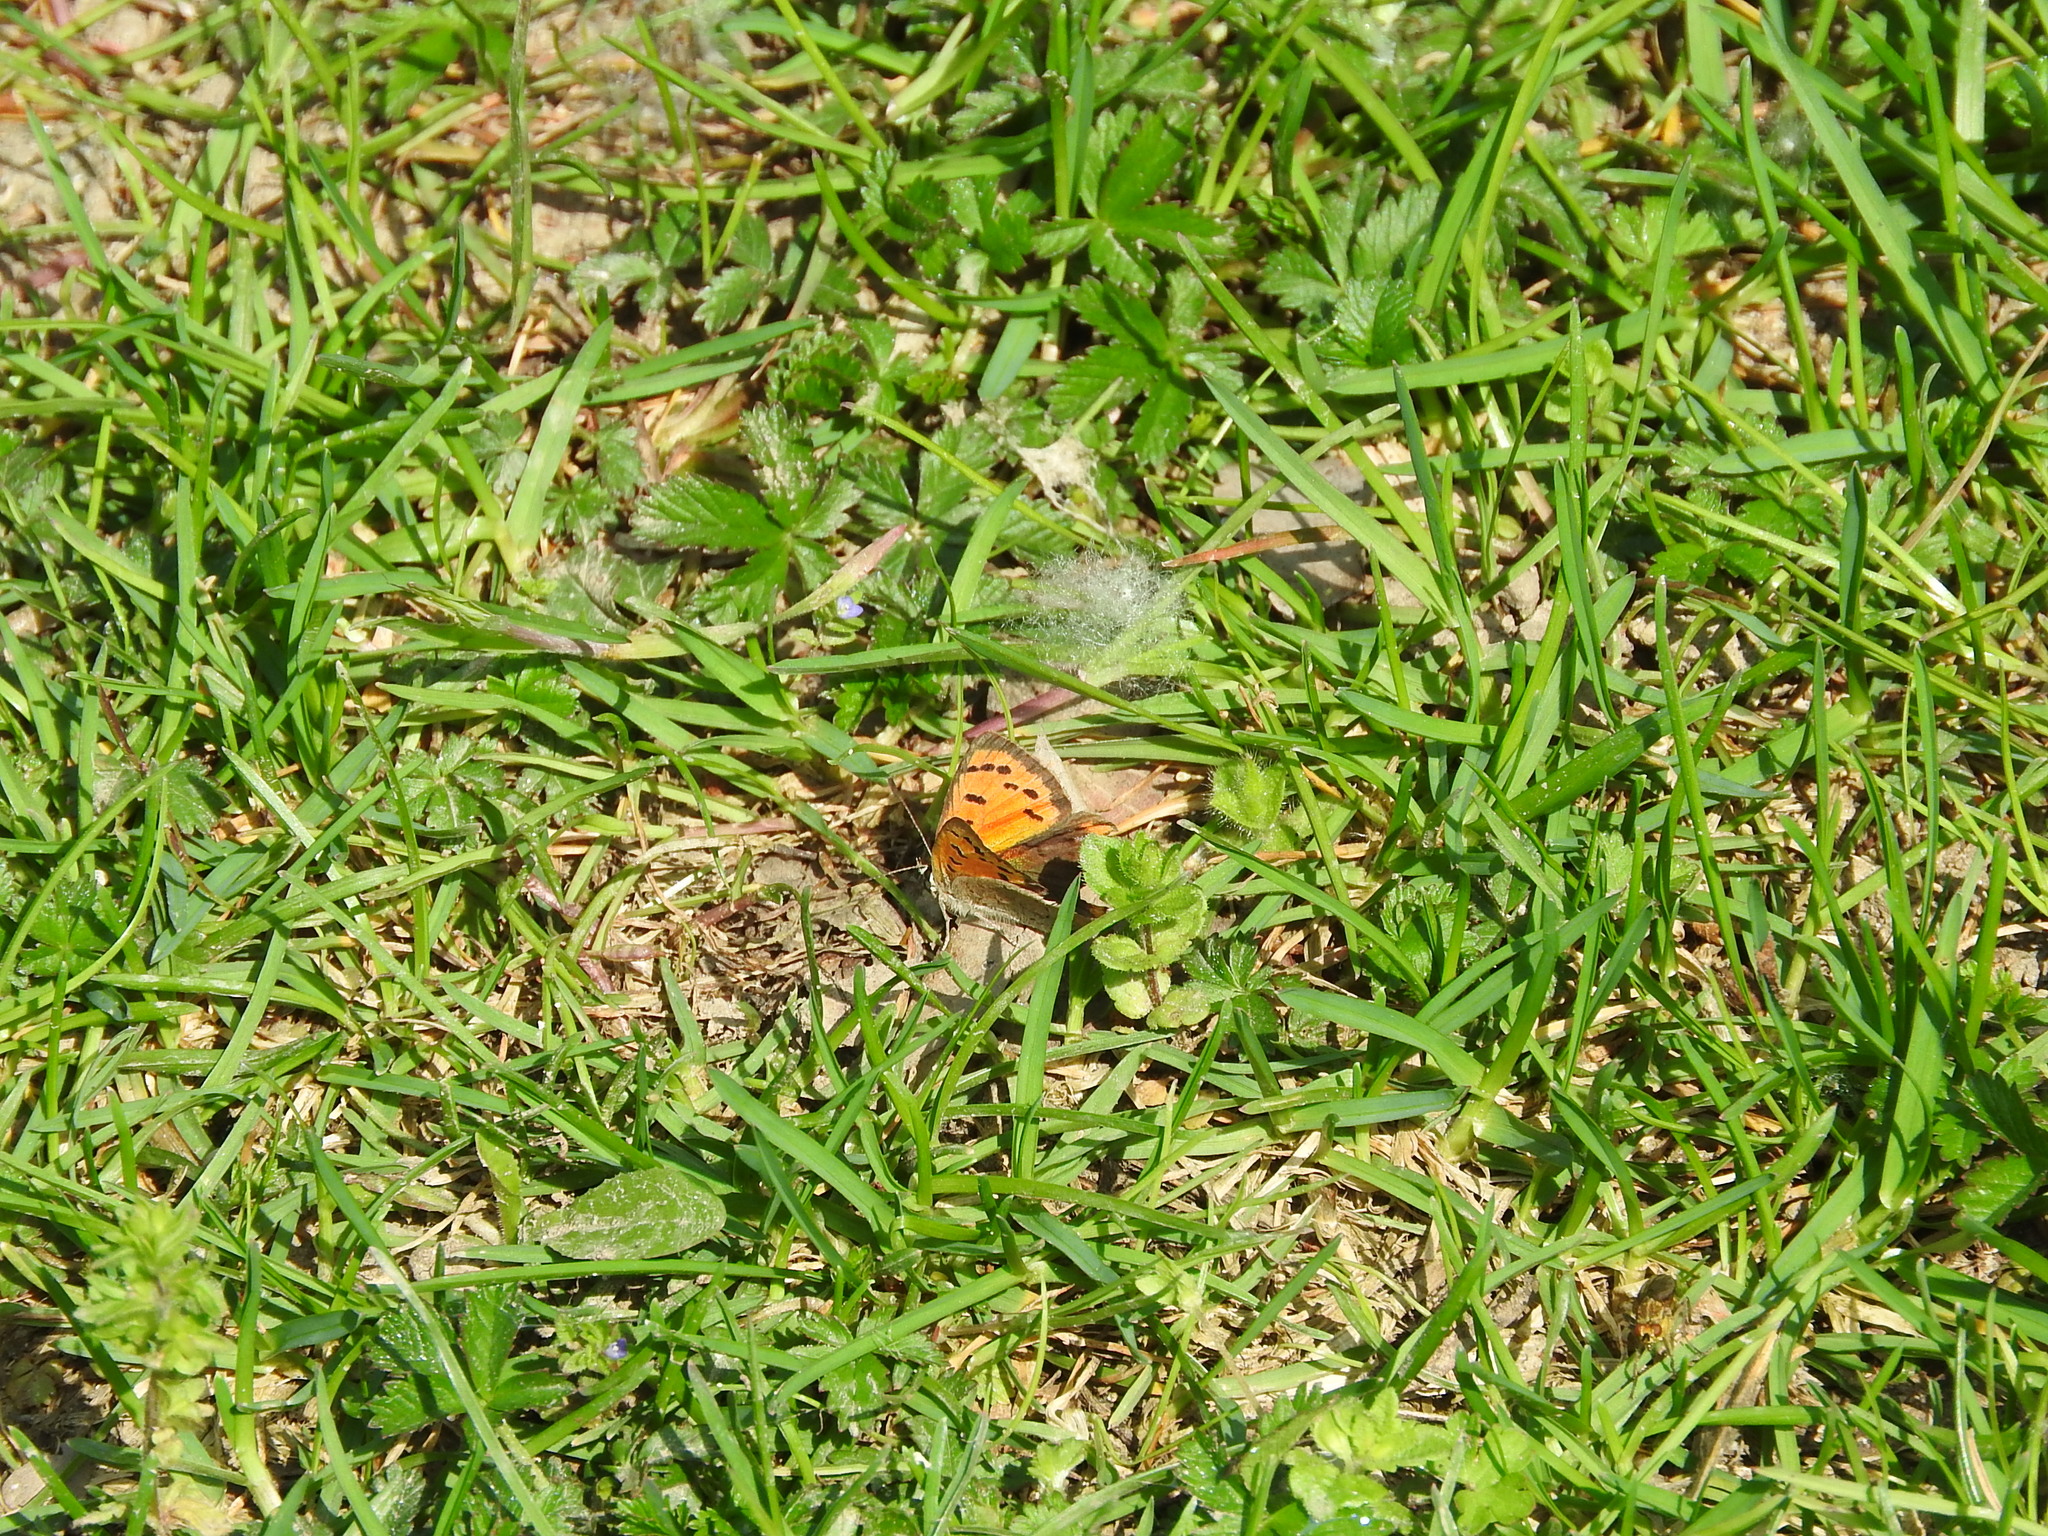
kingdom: Animalia
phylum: Arthropoda
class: Insecta
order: Lepidoptera
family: Lycaenidae
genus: Lycaena
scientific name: Lycaena phlaeas
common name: Small copper
